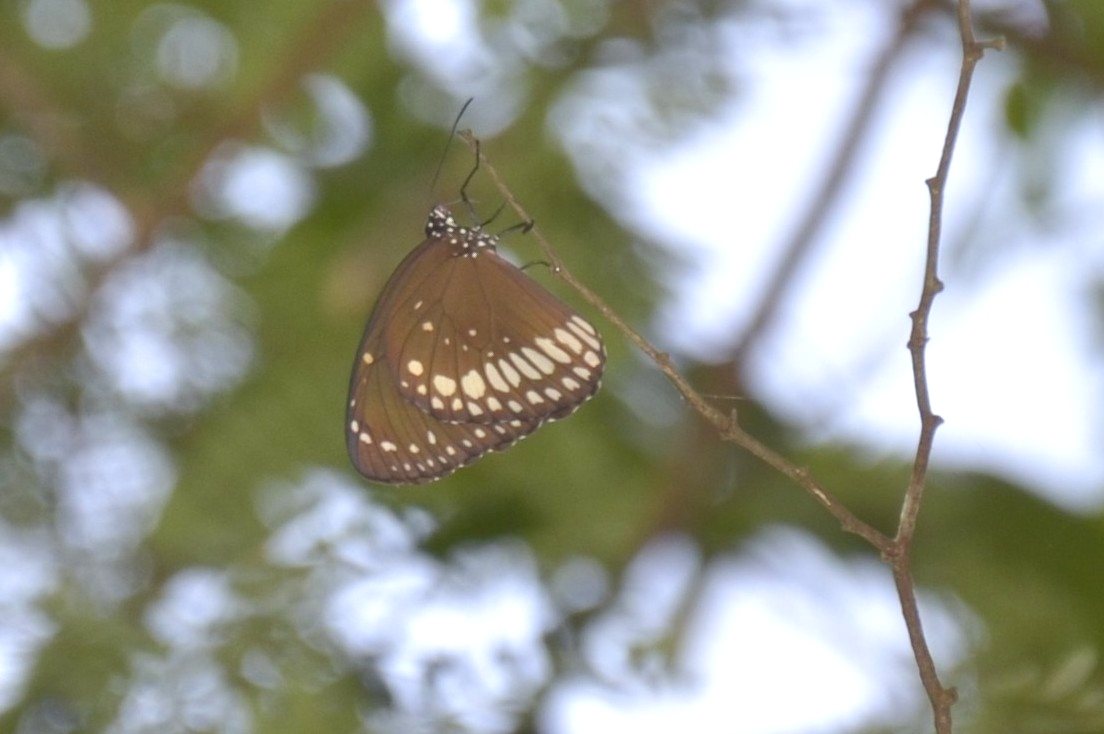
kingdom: Animalia
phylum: Arthropoda
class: Insecta
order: Lepidoptera
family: Nymphalidae
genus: Euploea
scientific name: Euploea core
